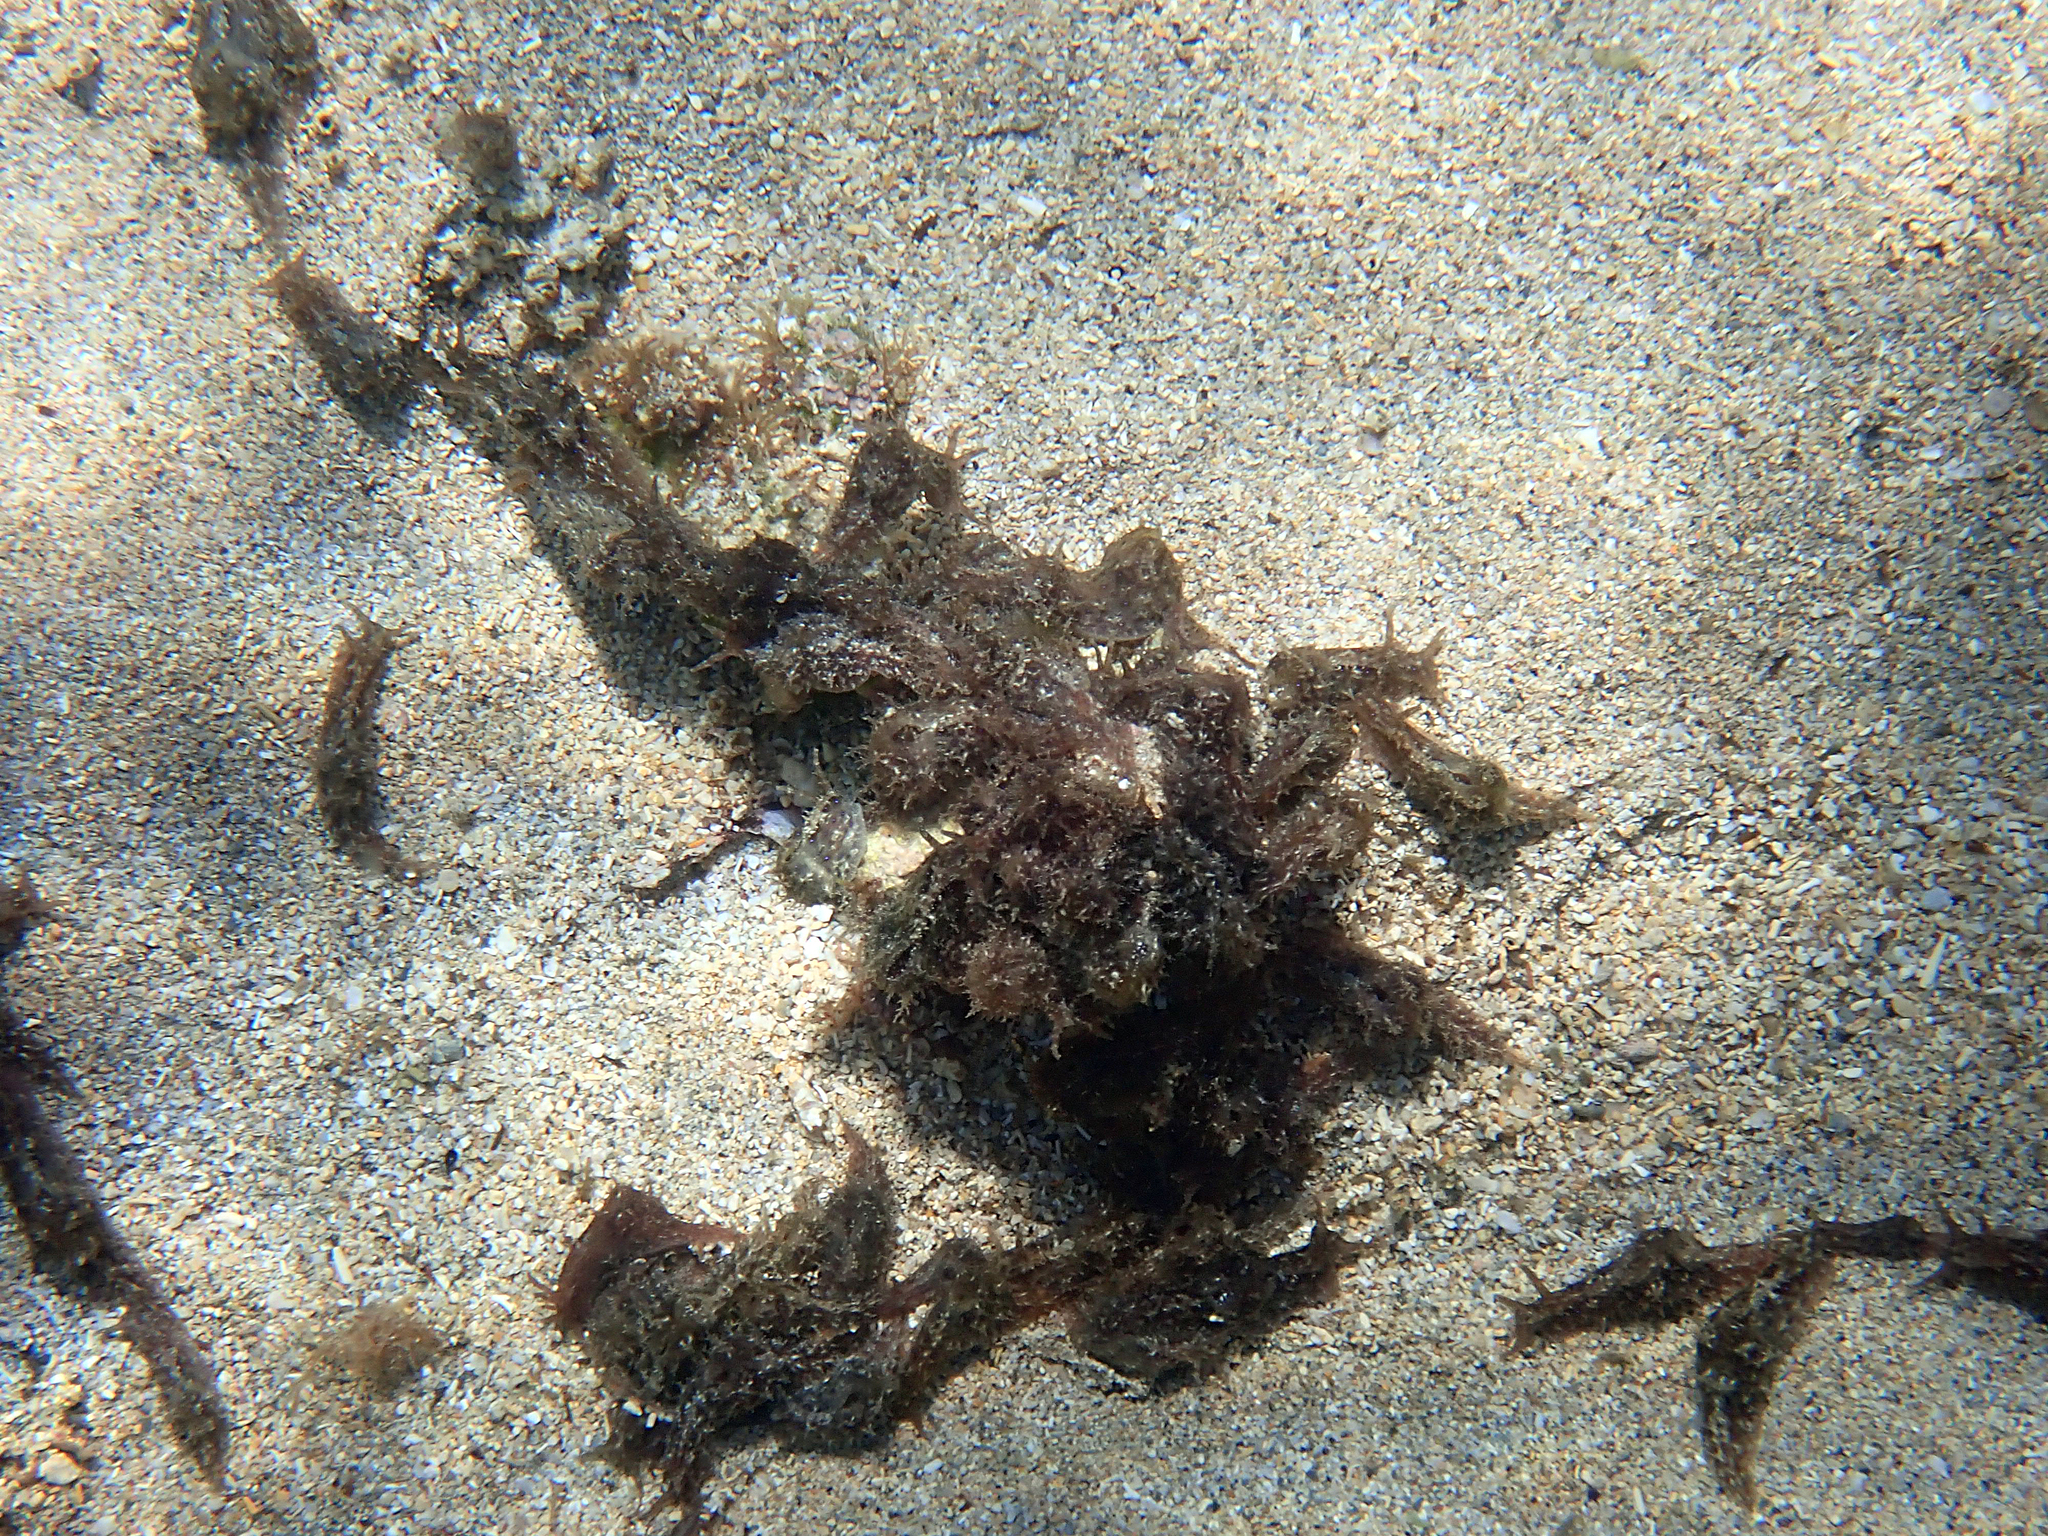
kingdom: Animalia
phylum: Mollusca
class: Gastropoda
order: Aplysiida
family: Aplysiidae
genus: Stylocheilus
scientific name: Stylocheilus striatus
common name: Striated seahare
